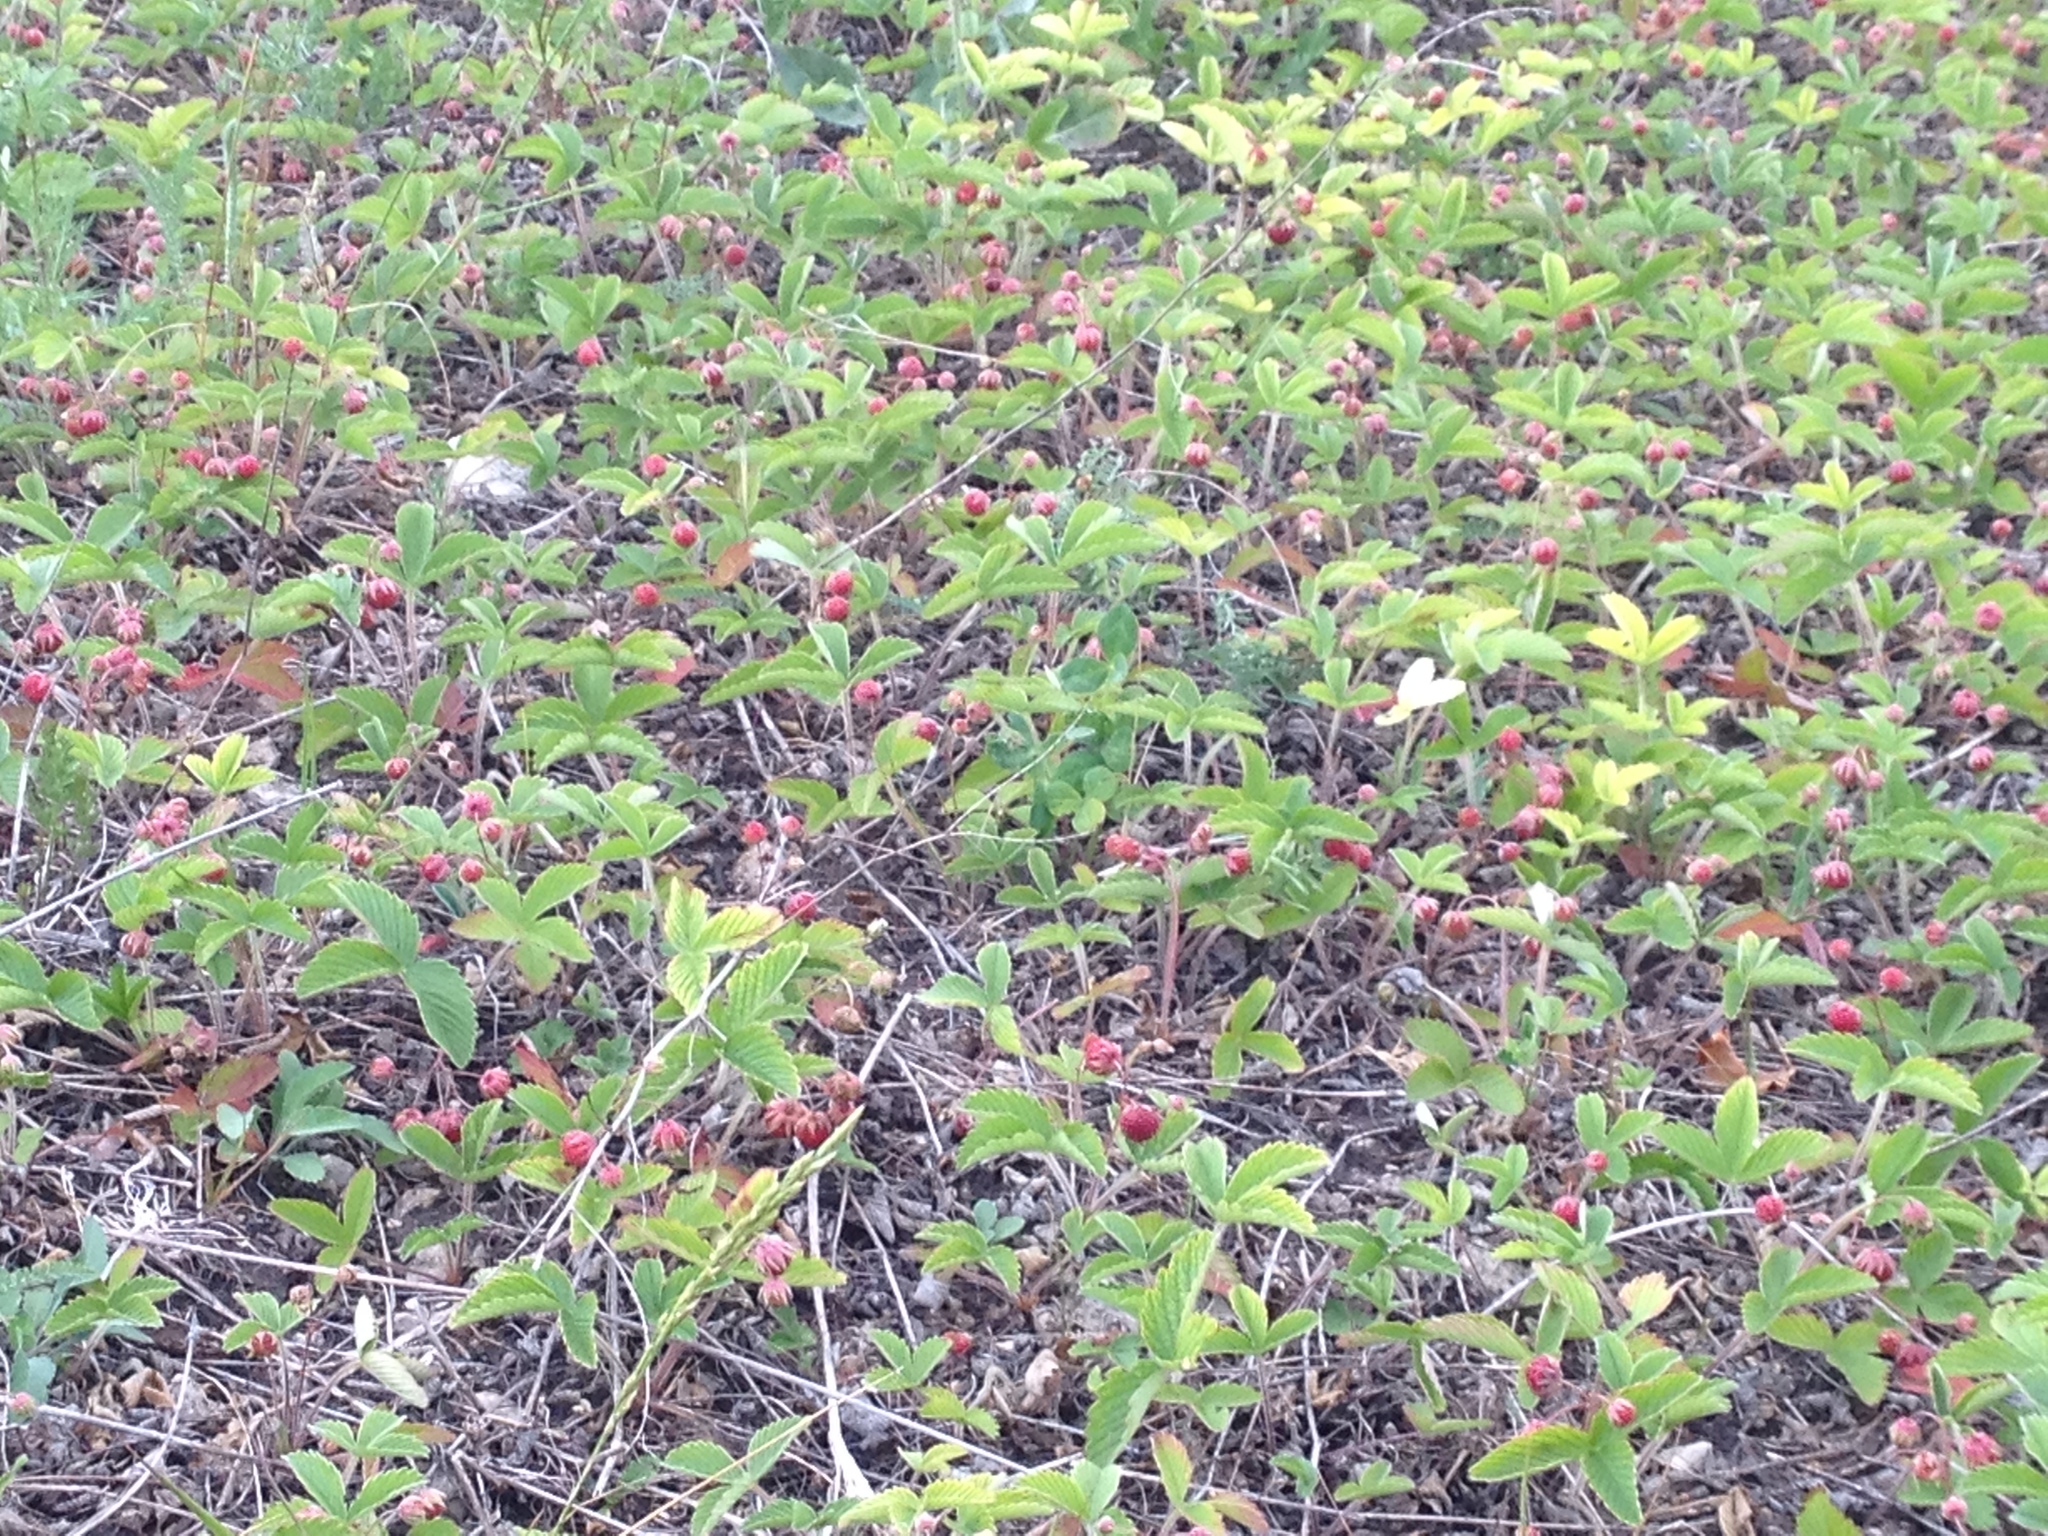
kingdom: Plantae
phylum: Tracheophyta
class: Magnoliopsida
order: Rosales
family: Rosaceae
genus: Fragaria
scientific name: Fragaria viridis
